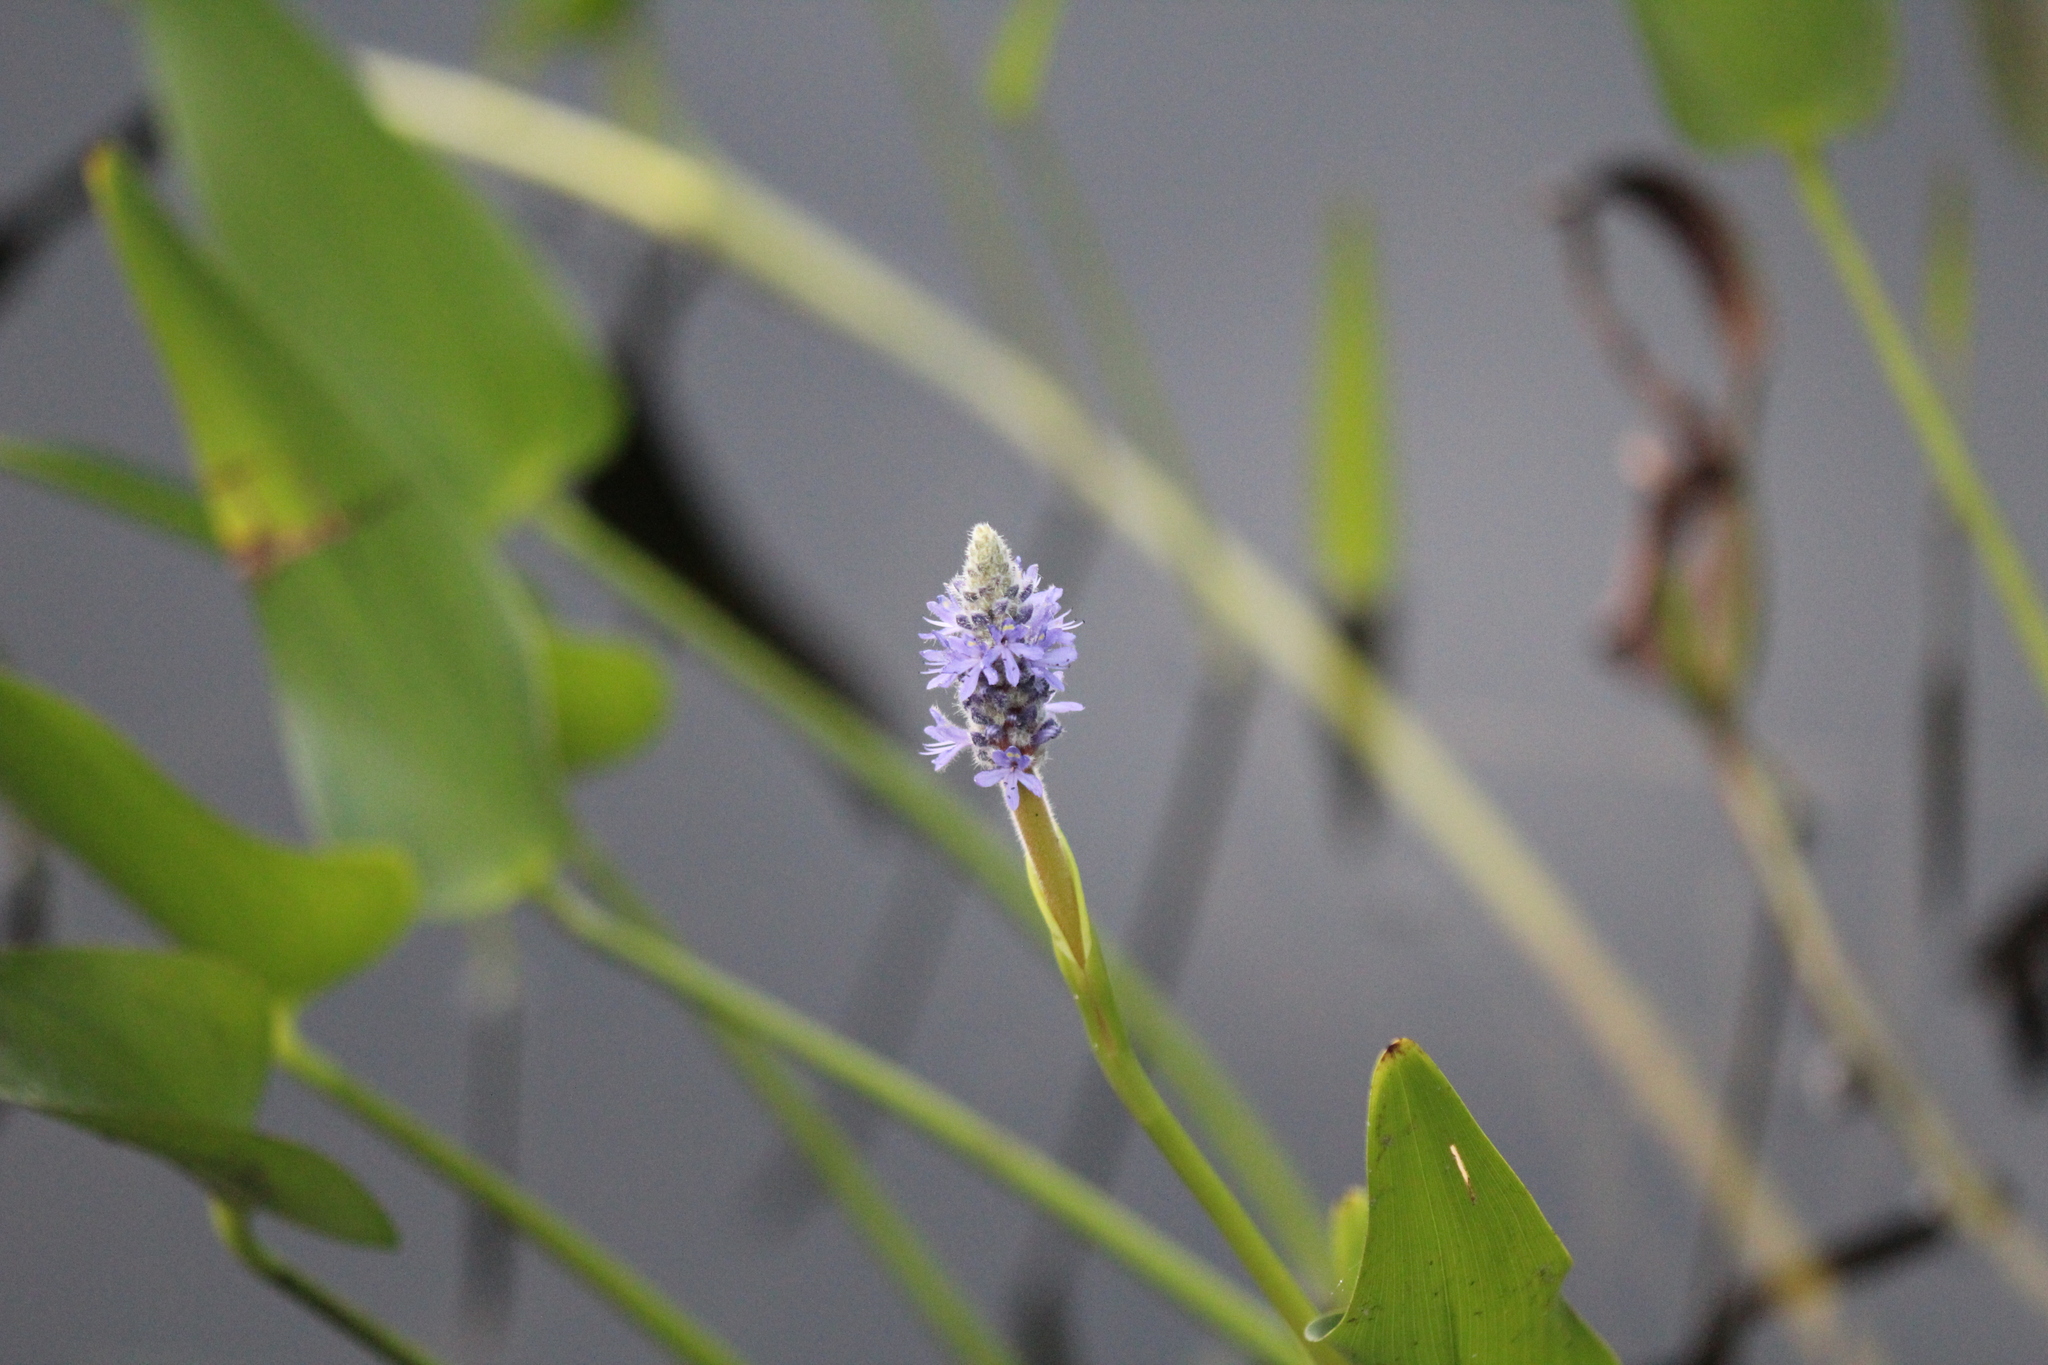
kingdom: Plantae
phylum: Tracheophyta
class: Liliopsida
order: Commelinales
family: Pontederiaceae
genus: Pontederia
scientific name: Pontederia cordata
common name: Pickerelweed
